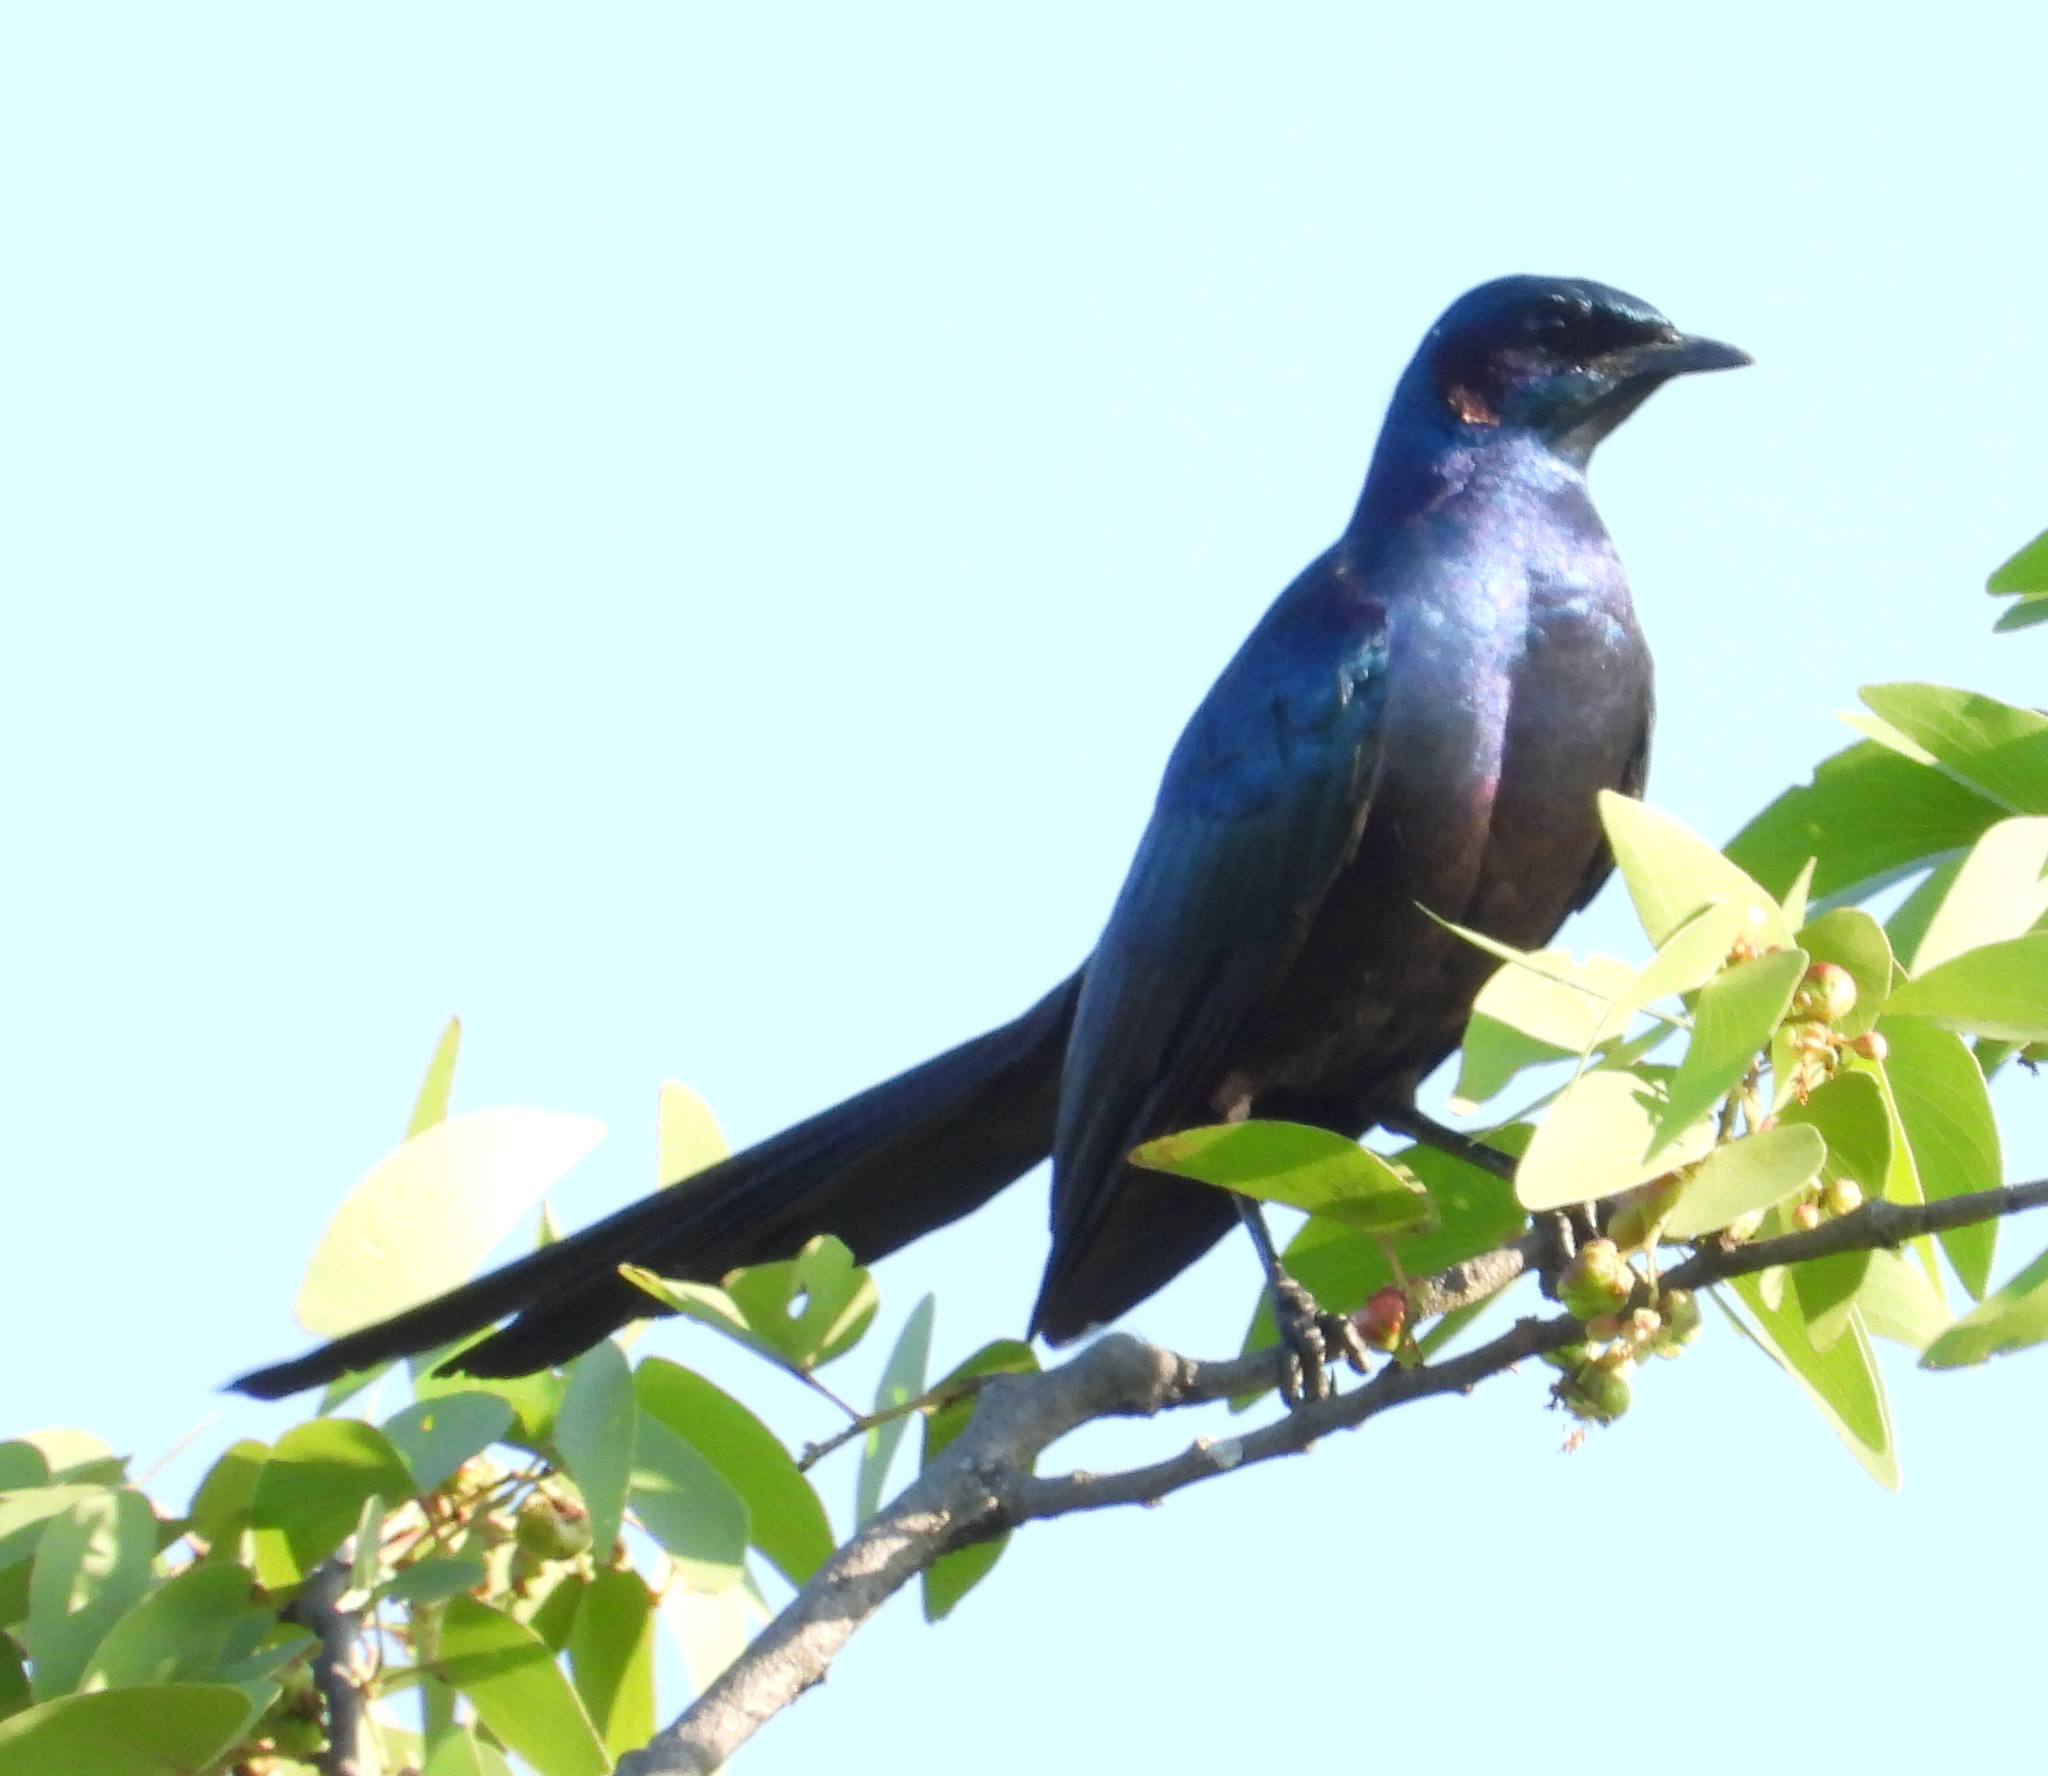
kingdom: Animalia
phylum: Chordata
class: Aves
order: Passeriformes
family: Sturnidae
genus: Lamprotornis
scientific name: Lamprotornis mevesii
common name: Meves's starling
